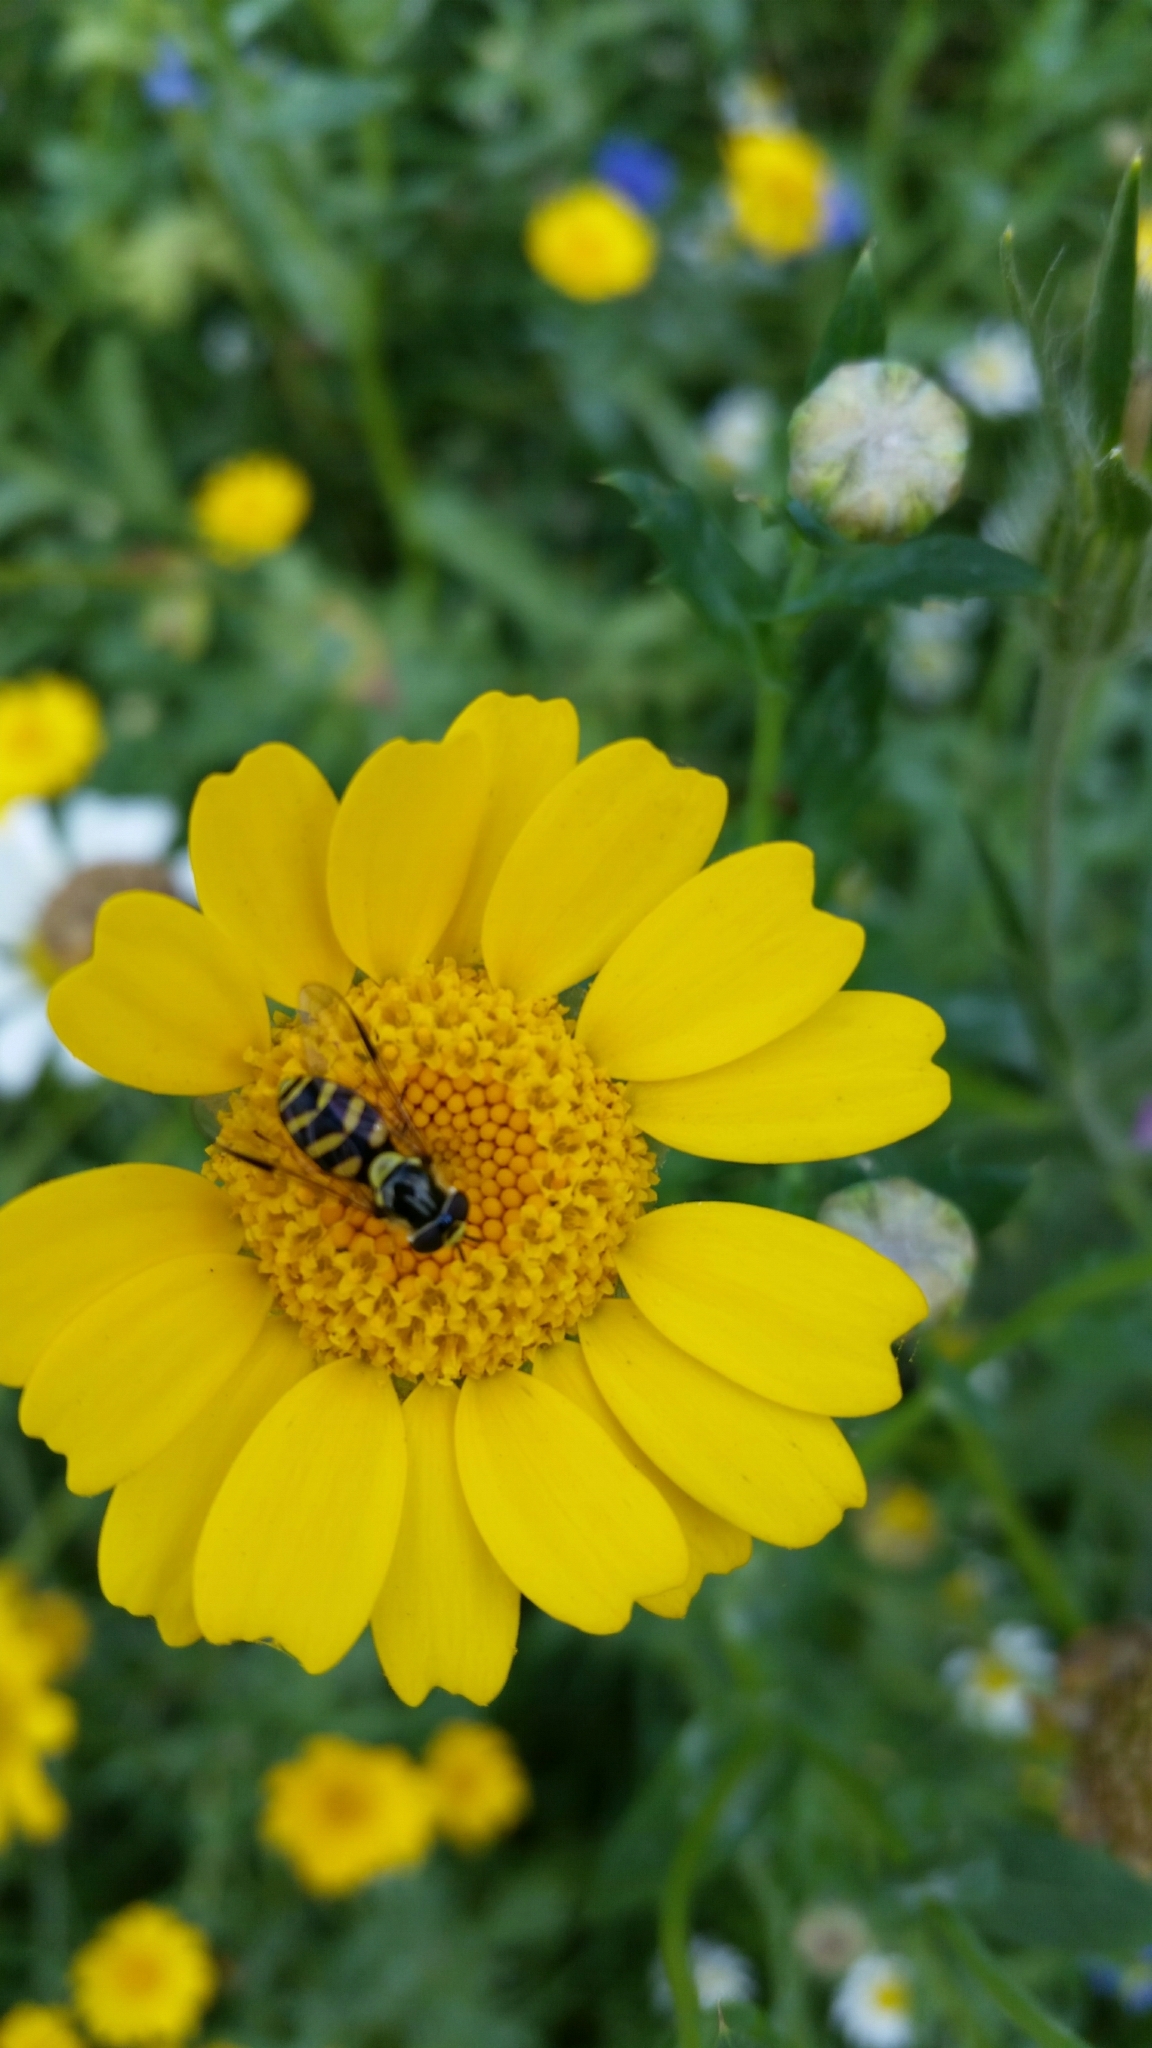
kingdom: Animalia
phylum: Arthropoda
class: Insecta
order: Diptera
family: Syrphidae
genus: Dasysyrphus
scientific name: Dasysyrphus albostriatus
